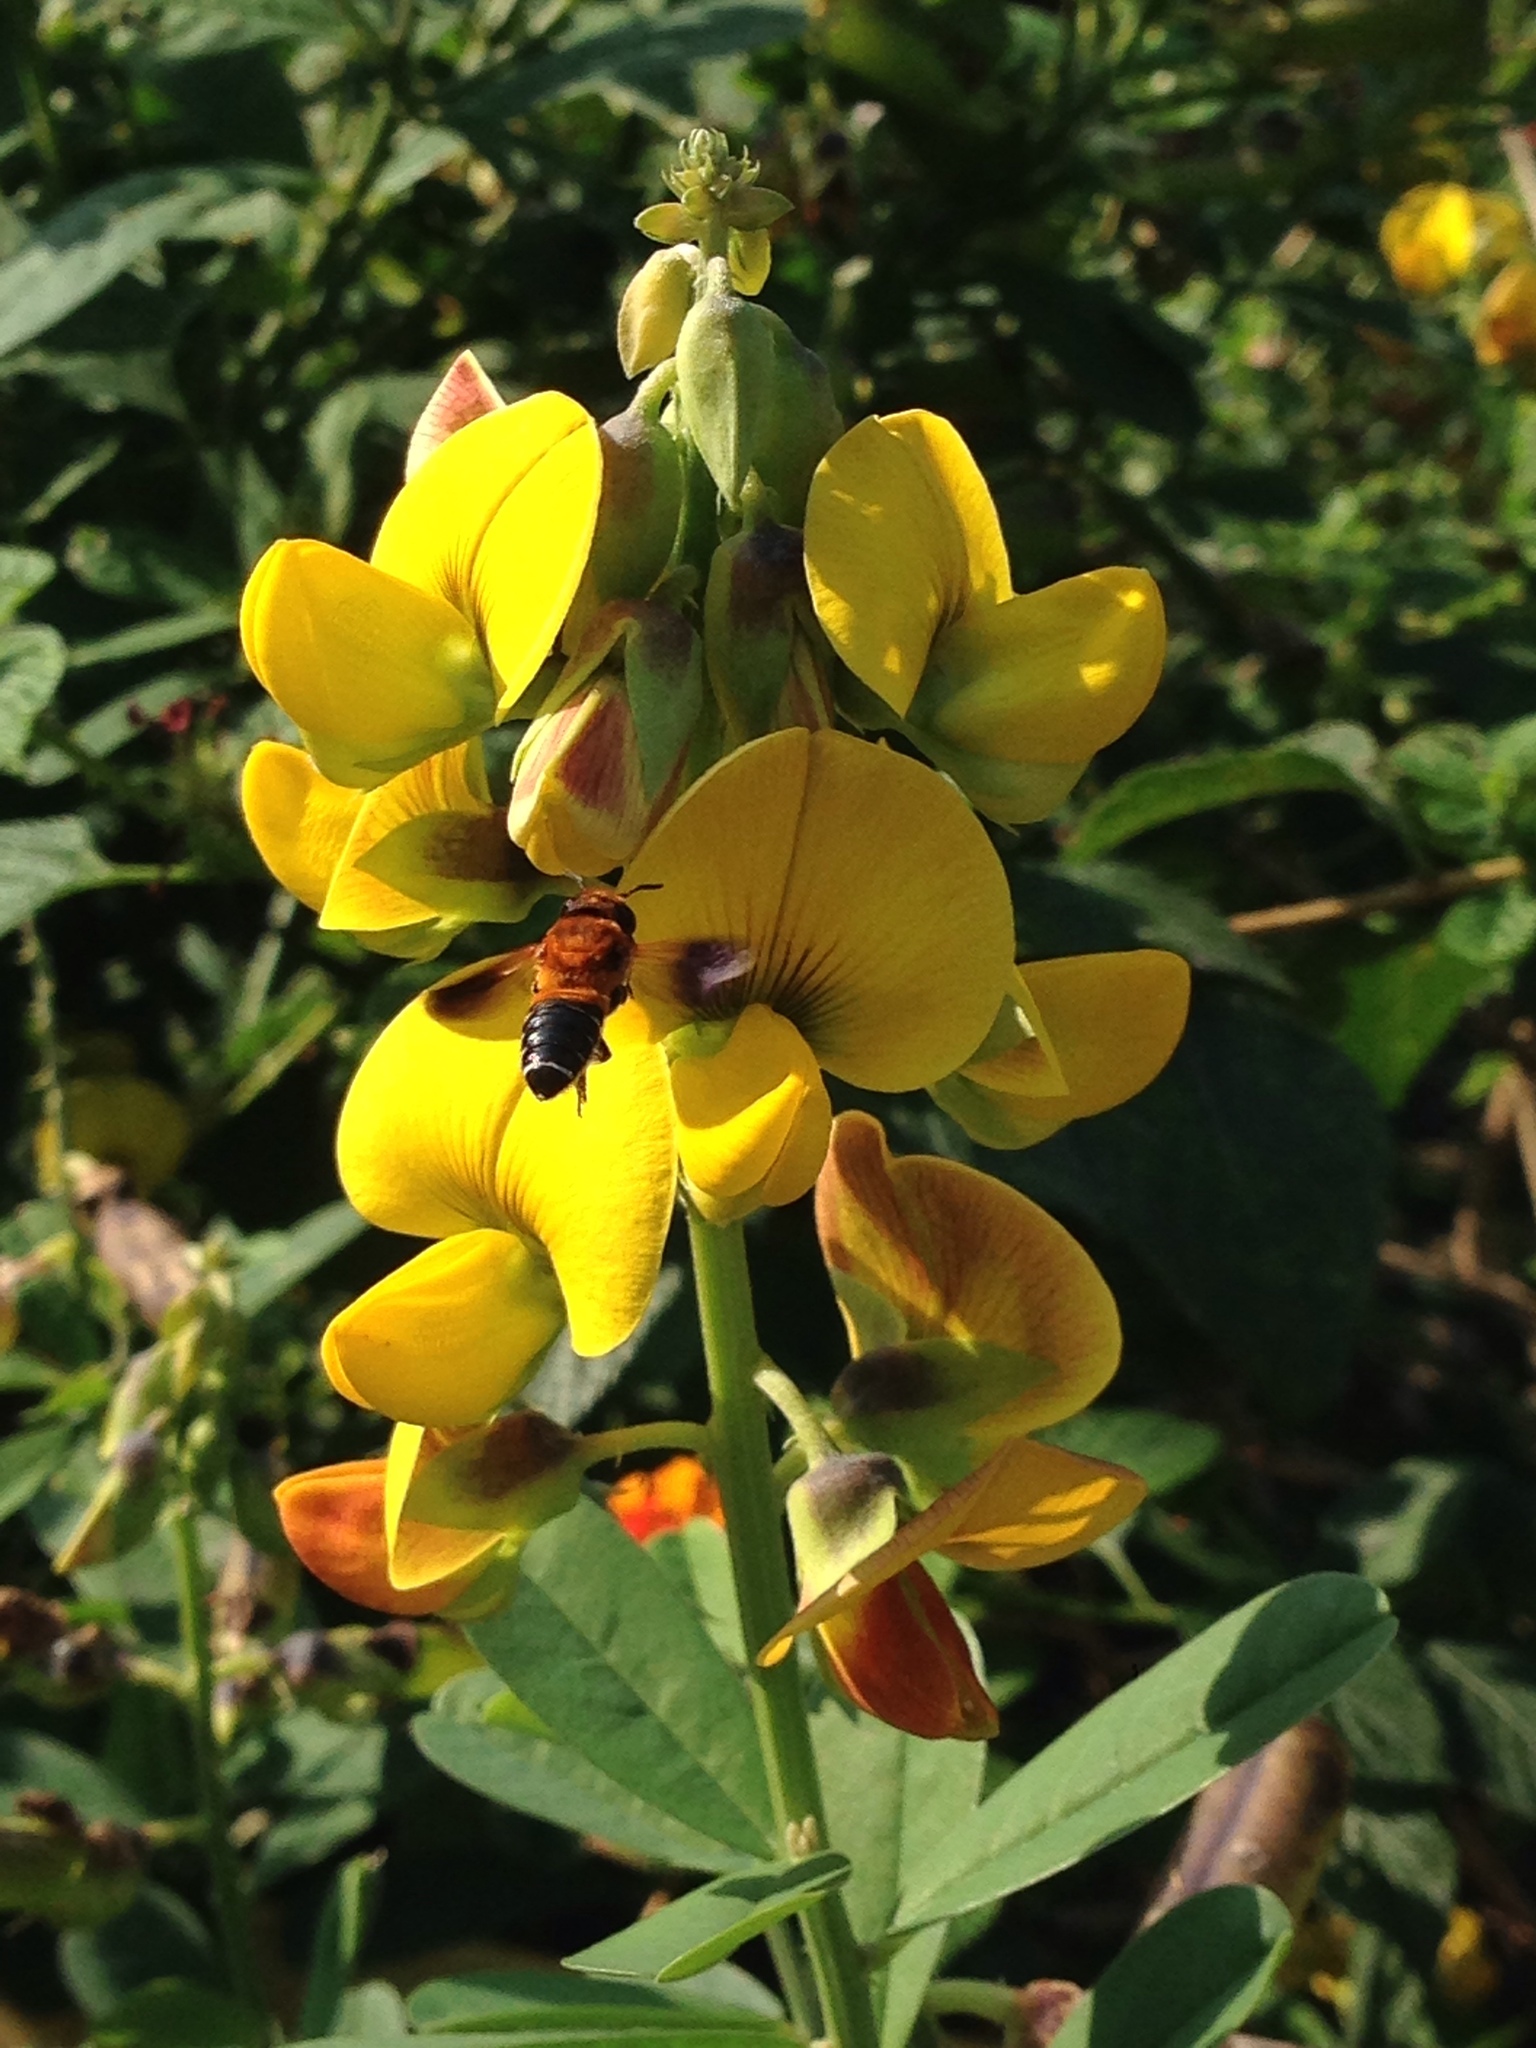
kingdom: Animalia
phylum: Arthropoda
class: Insecta
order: Hymenoptera
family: Megachilidae
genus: Megachile
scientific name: Megachile umbripennis
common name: Shadow-winged resin bee
